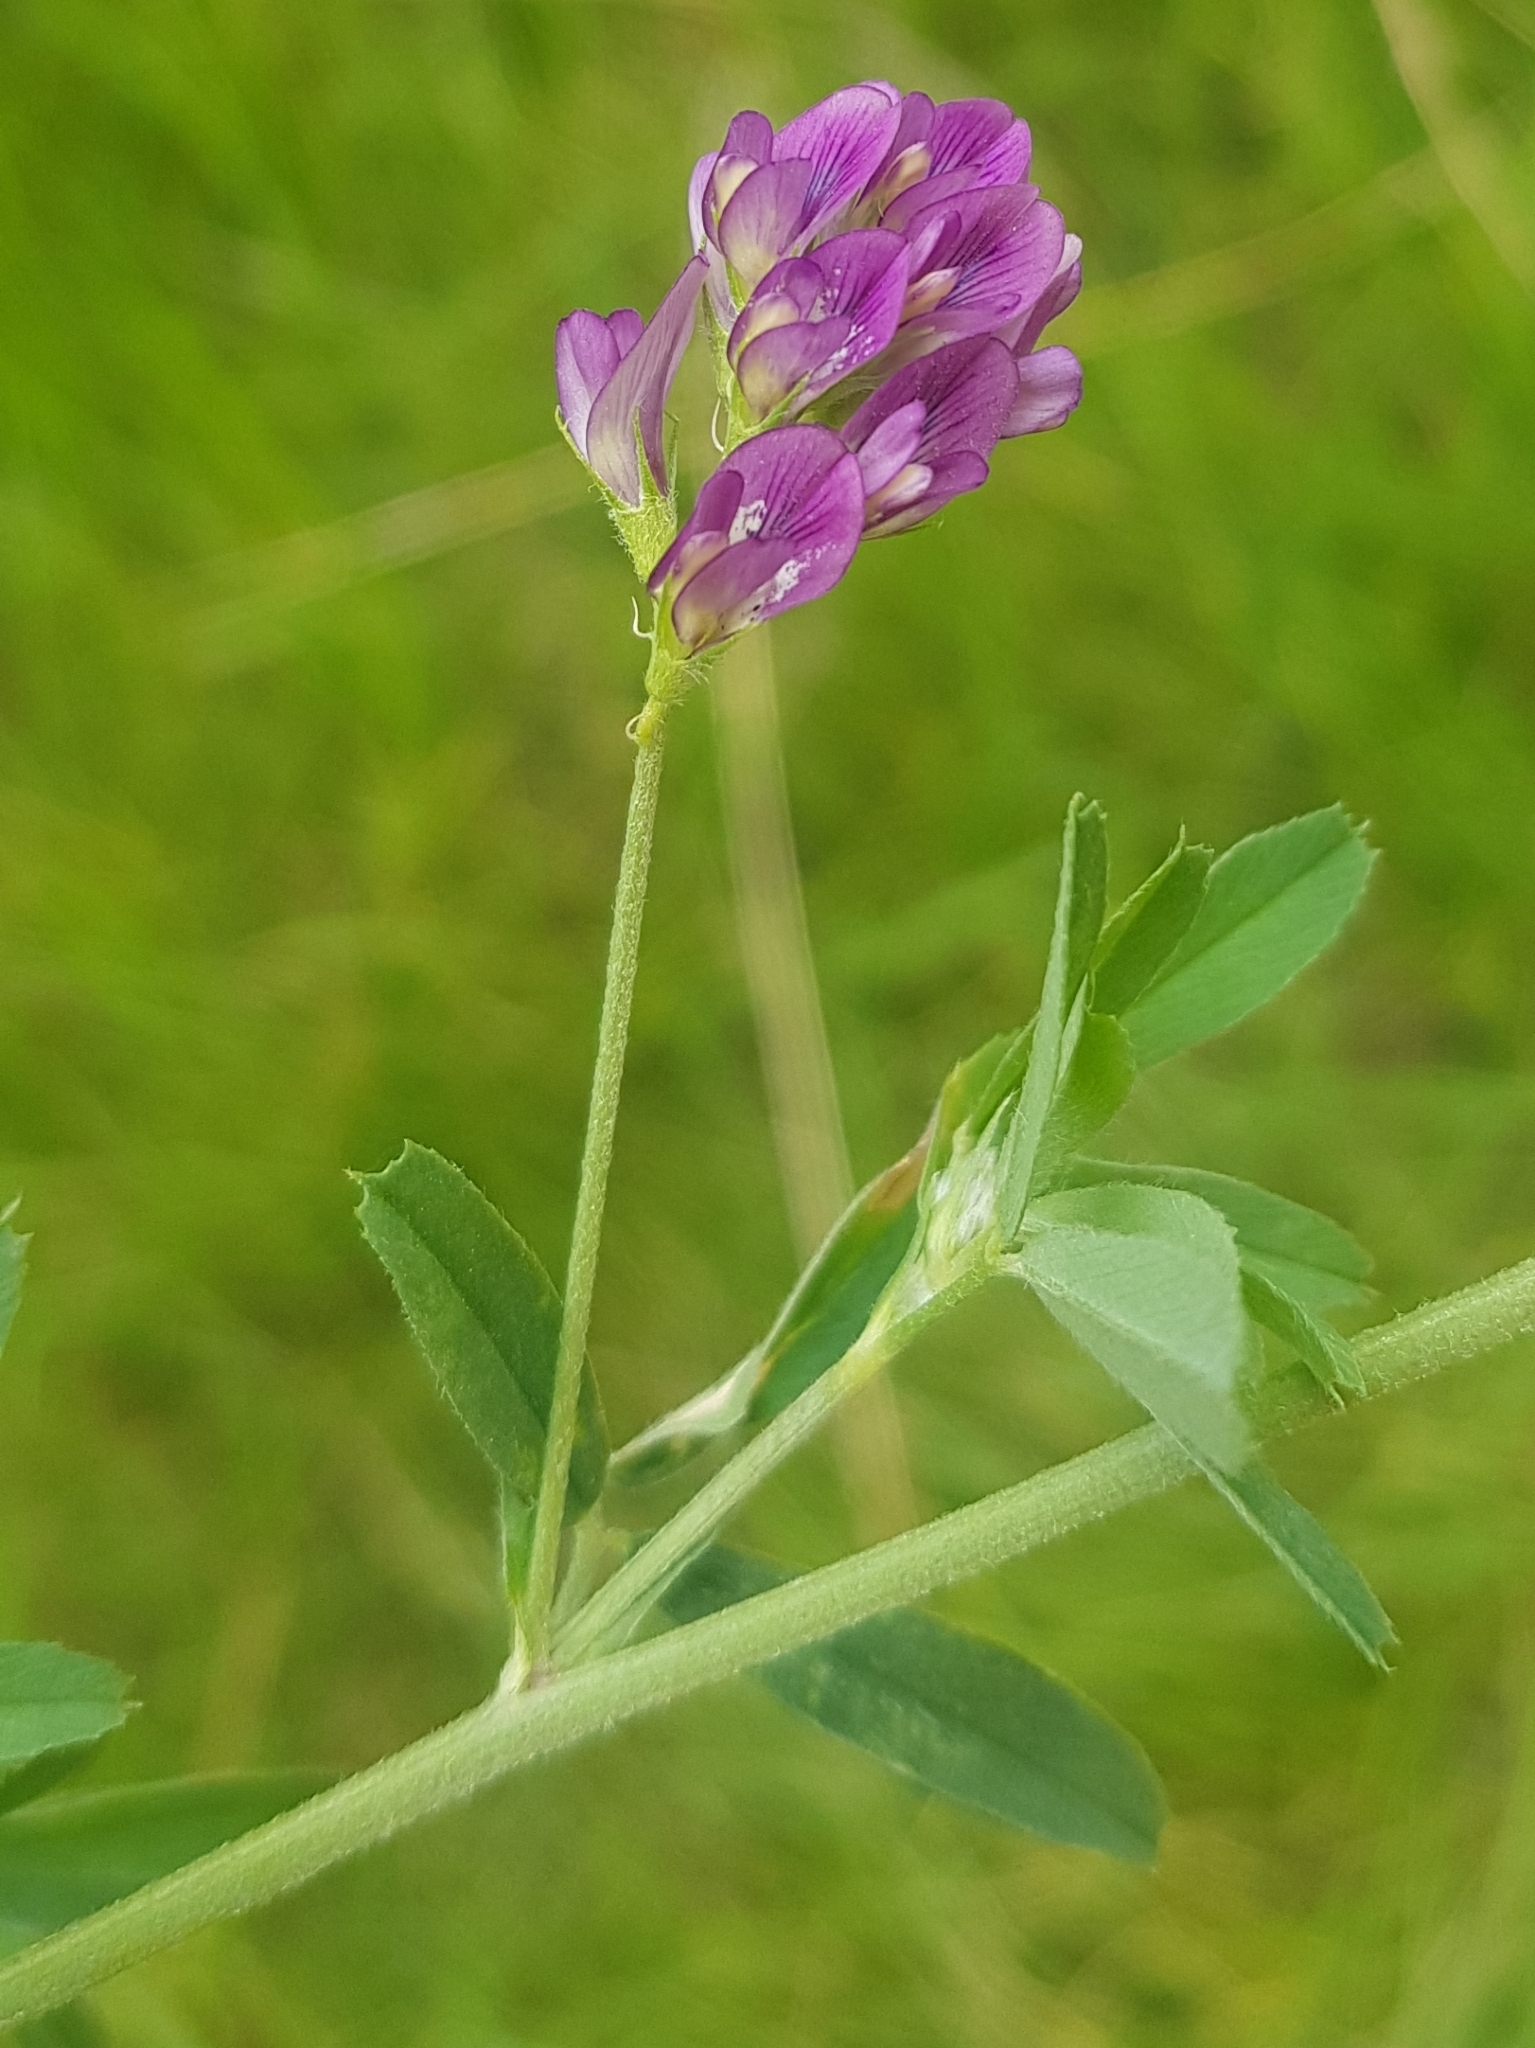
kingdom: Plantae
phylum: Tracheophyta
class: Magnoliopsida
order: Fabales
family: Fabaceae
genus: Medicago
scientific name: Medicago sativa
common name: Alfalfa
